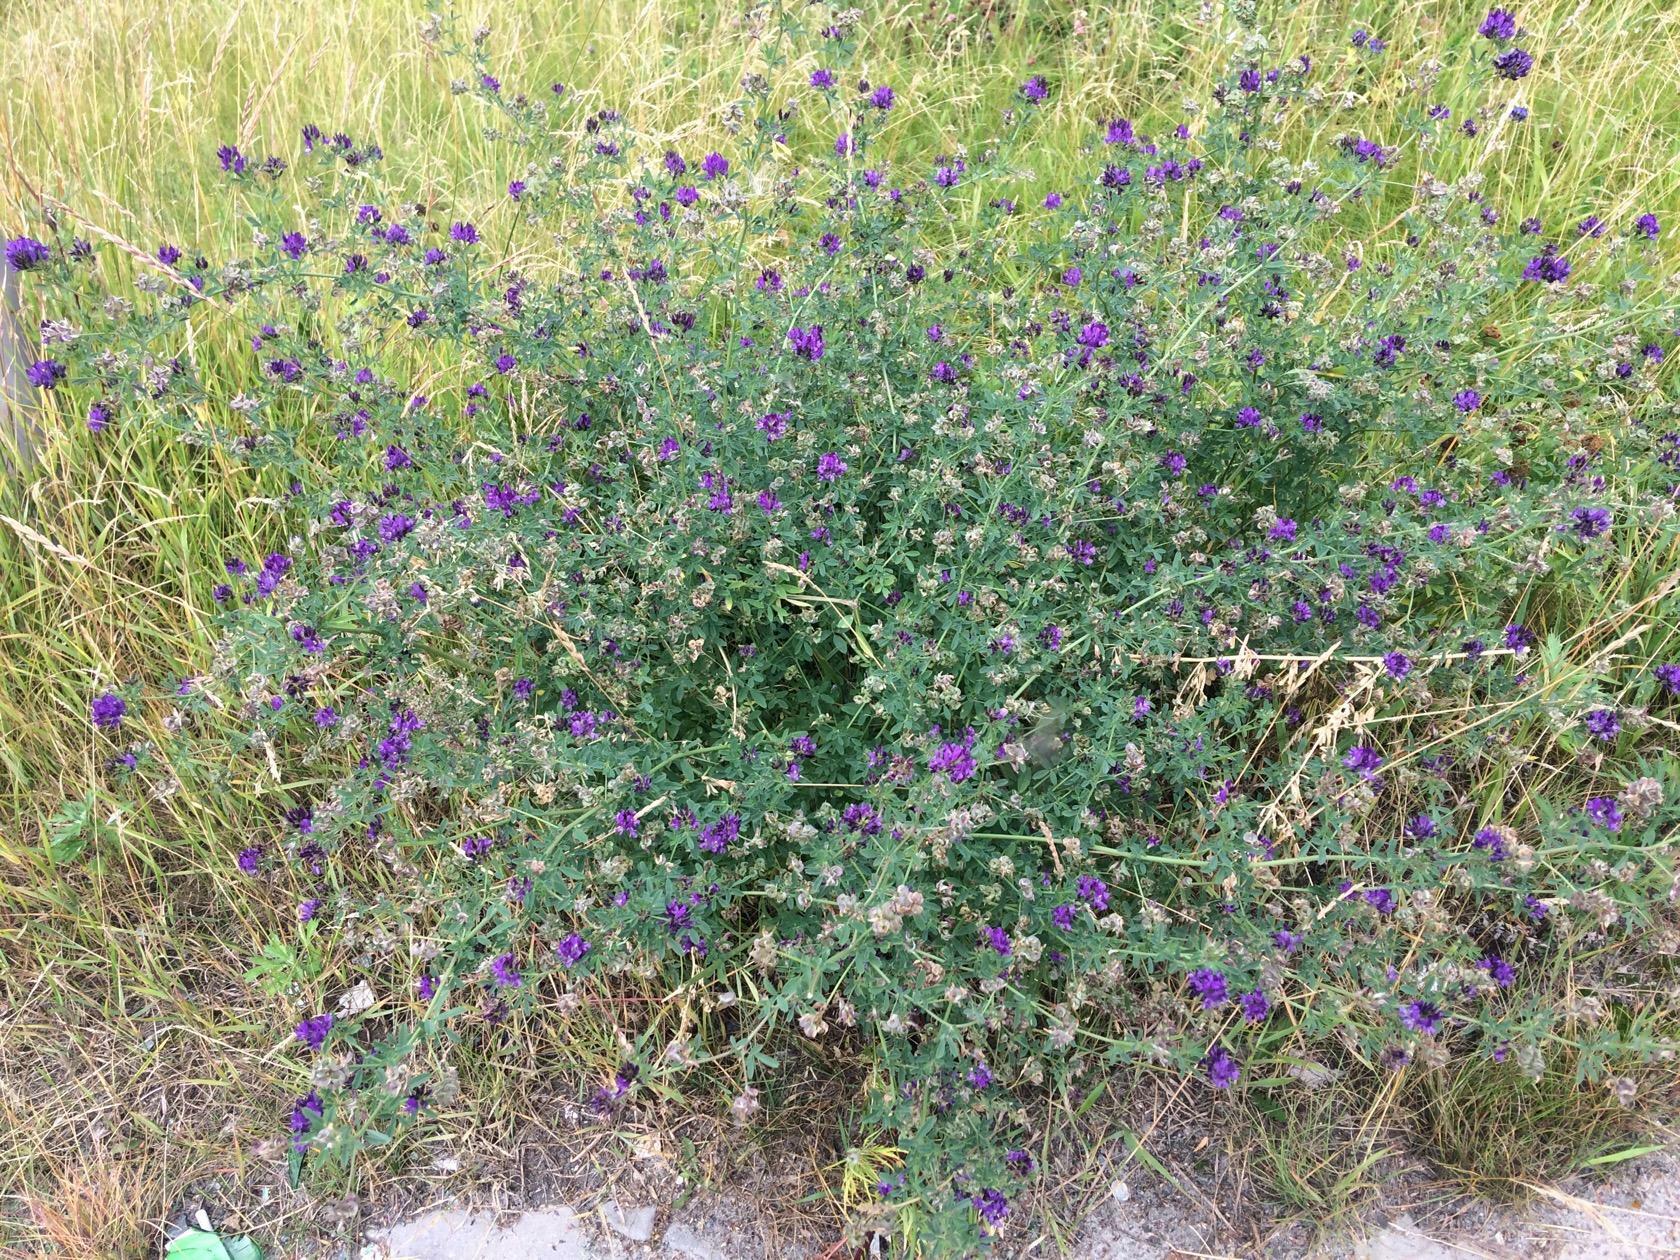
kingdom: Plantae
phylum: Tracheophyta
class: Magnoliopsida
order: Fabales
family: Fabaceae
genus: Medicago
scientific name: Medicago varia
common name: Sand lucerne
